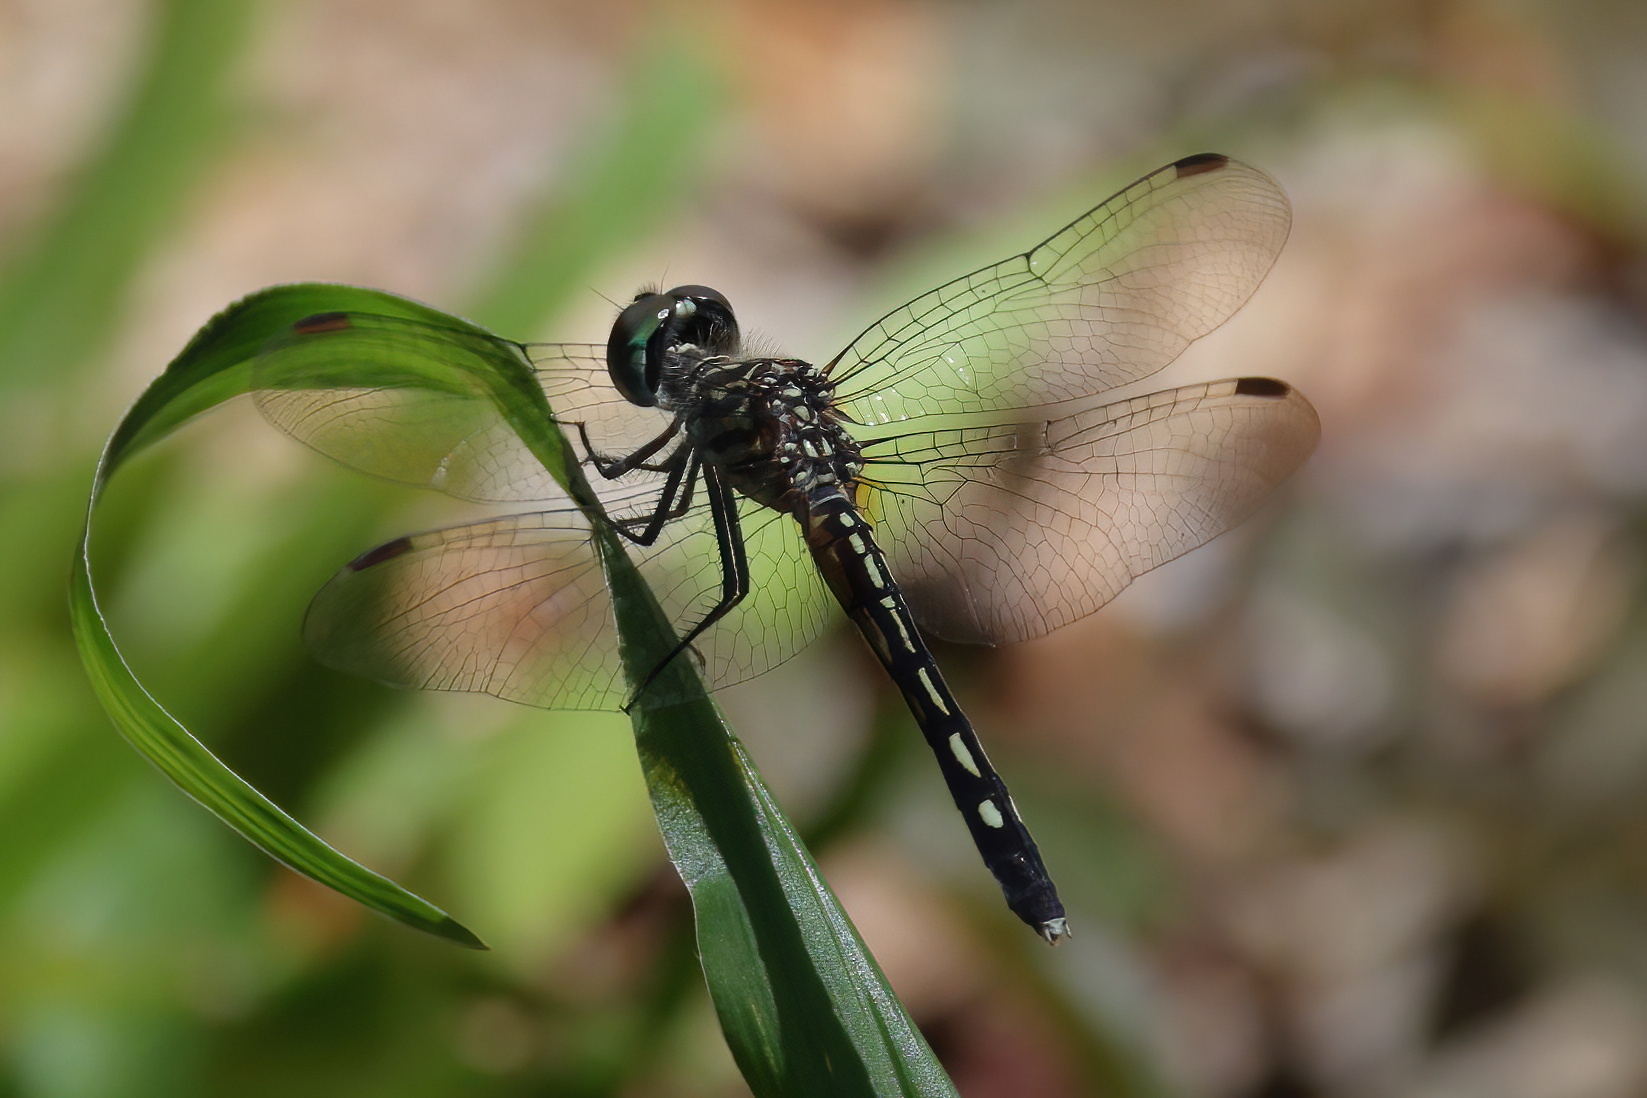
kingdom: Animalia
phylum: Arthropoda
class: Insecta
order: Odonata
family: Libellulidae
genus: Pachydiplax
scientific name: Pachydiplax longipennis
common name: Blue dasher
